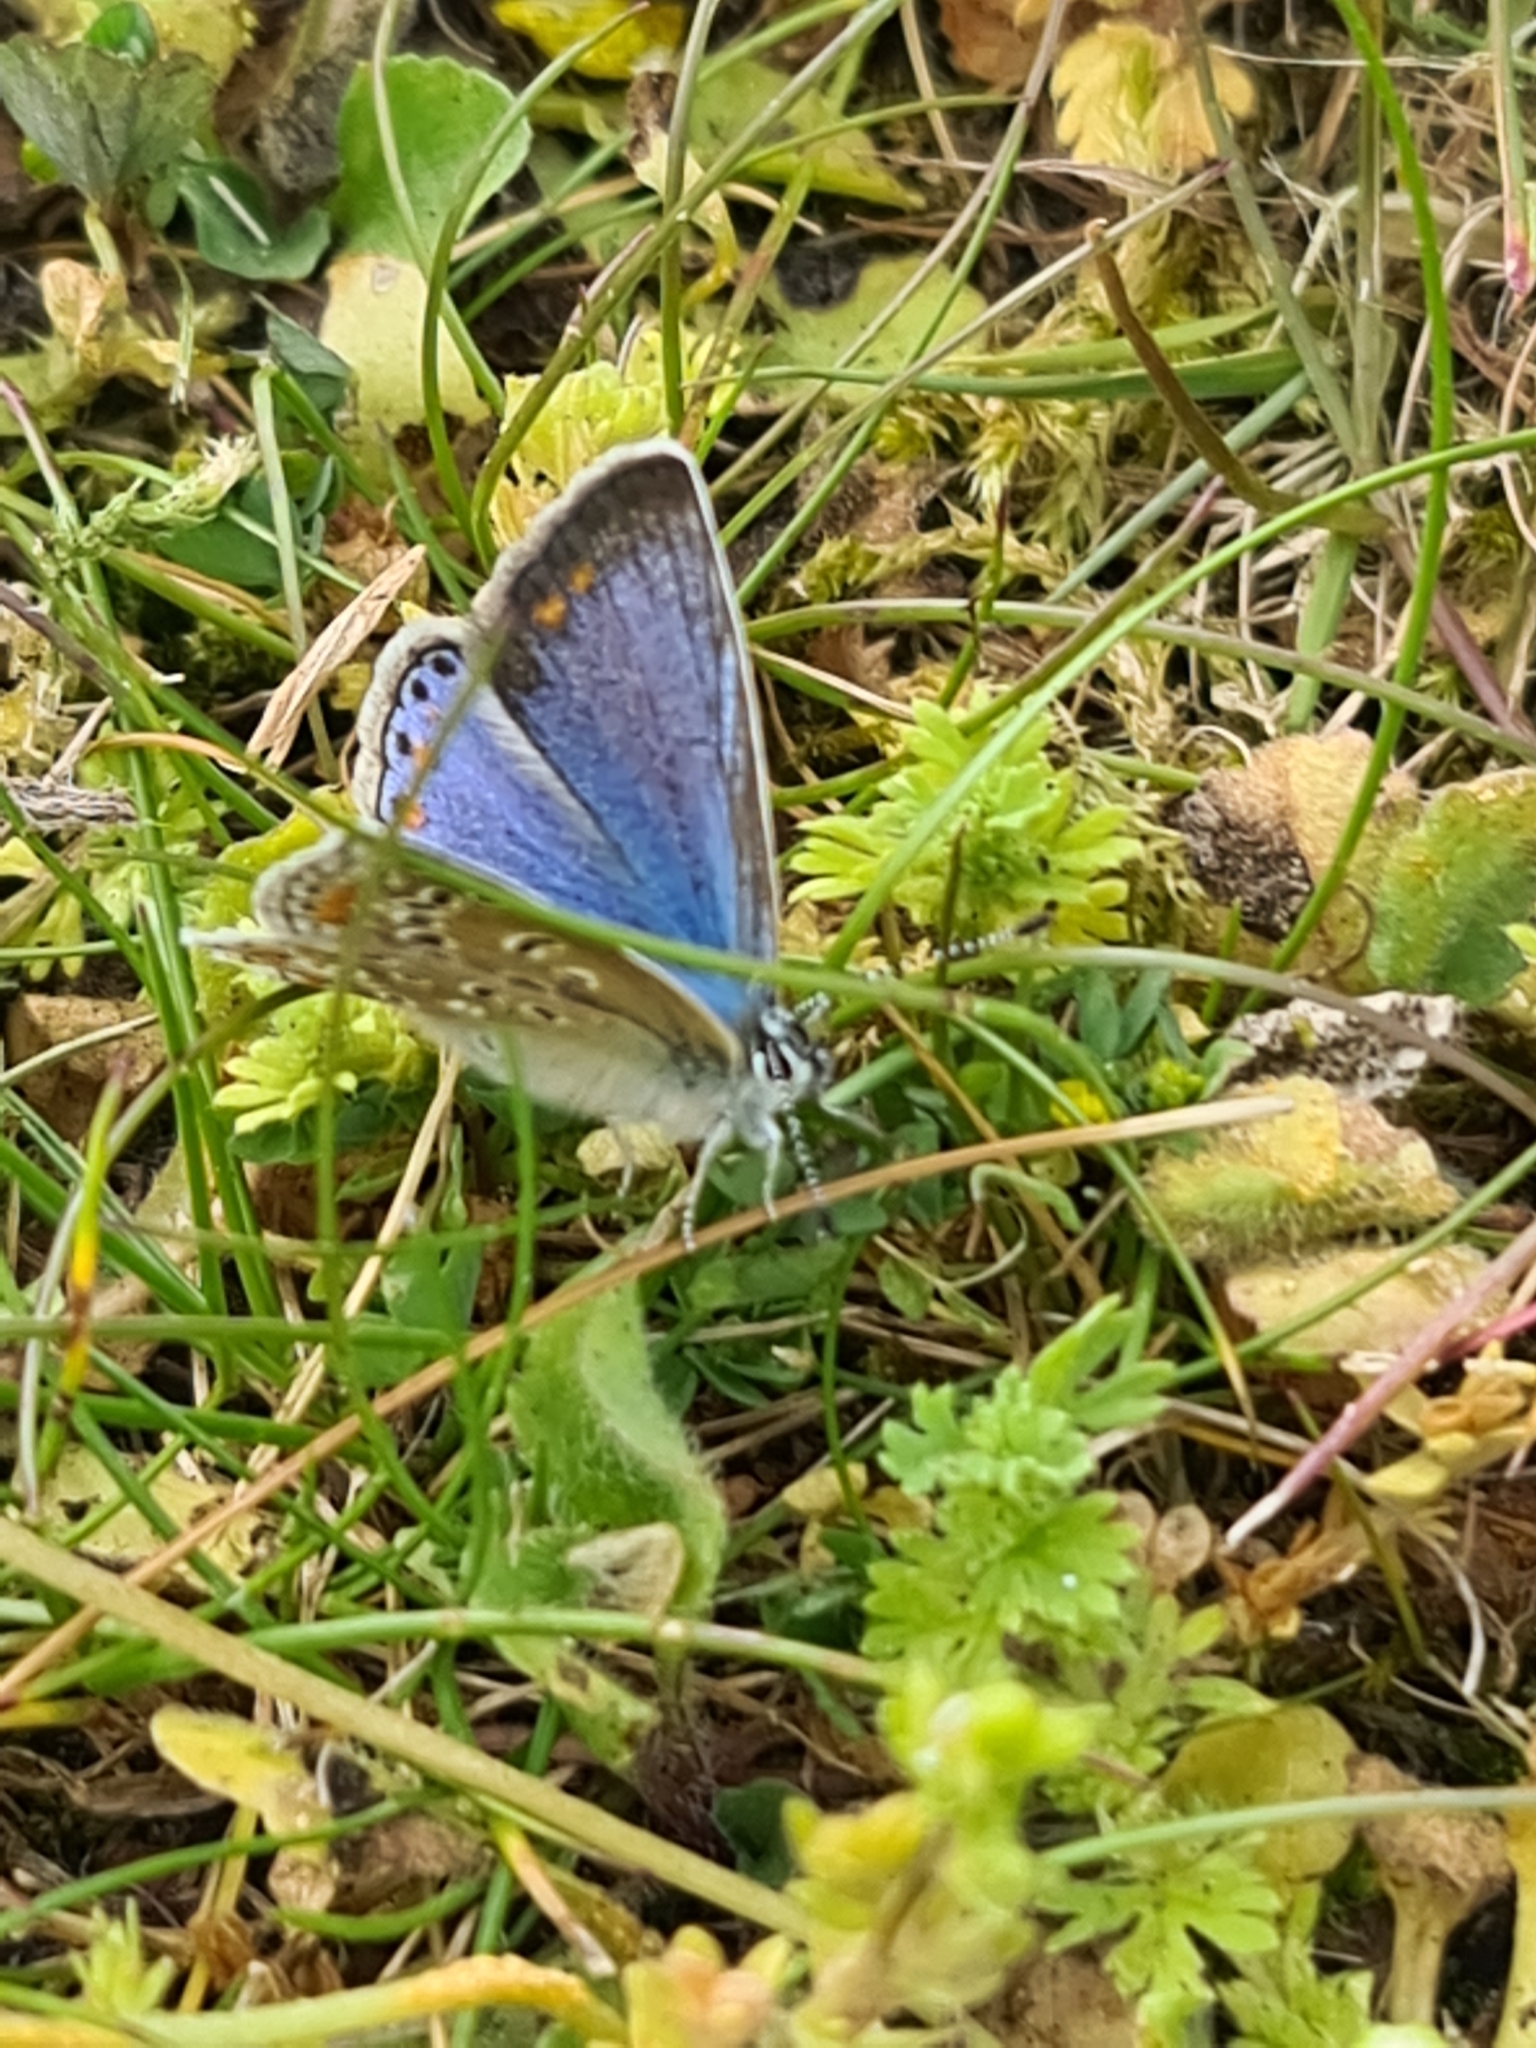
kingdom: Animalia
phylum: Arthropoda
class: Insecta
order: Lepidoptera
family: Lycaenidae
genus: Polyommatus
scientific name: Polyommatus icarus
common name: Common blue
